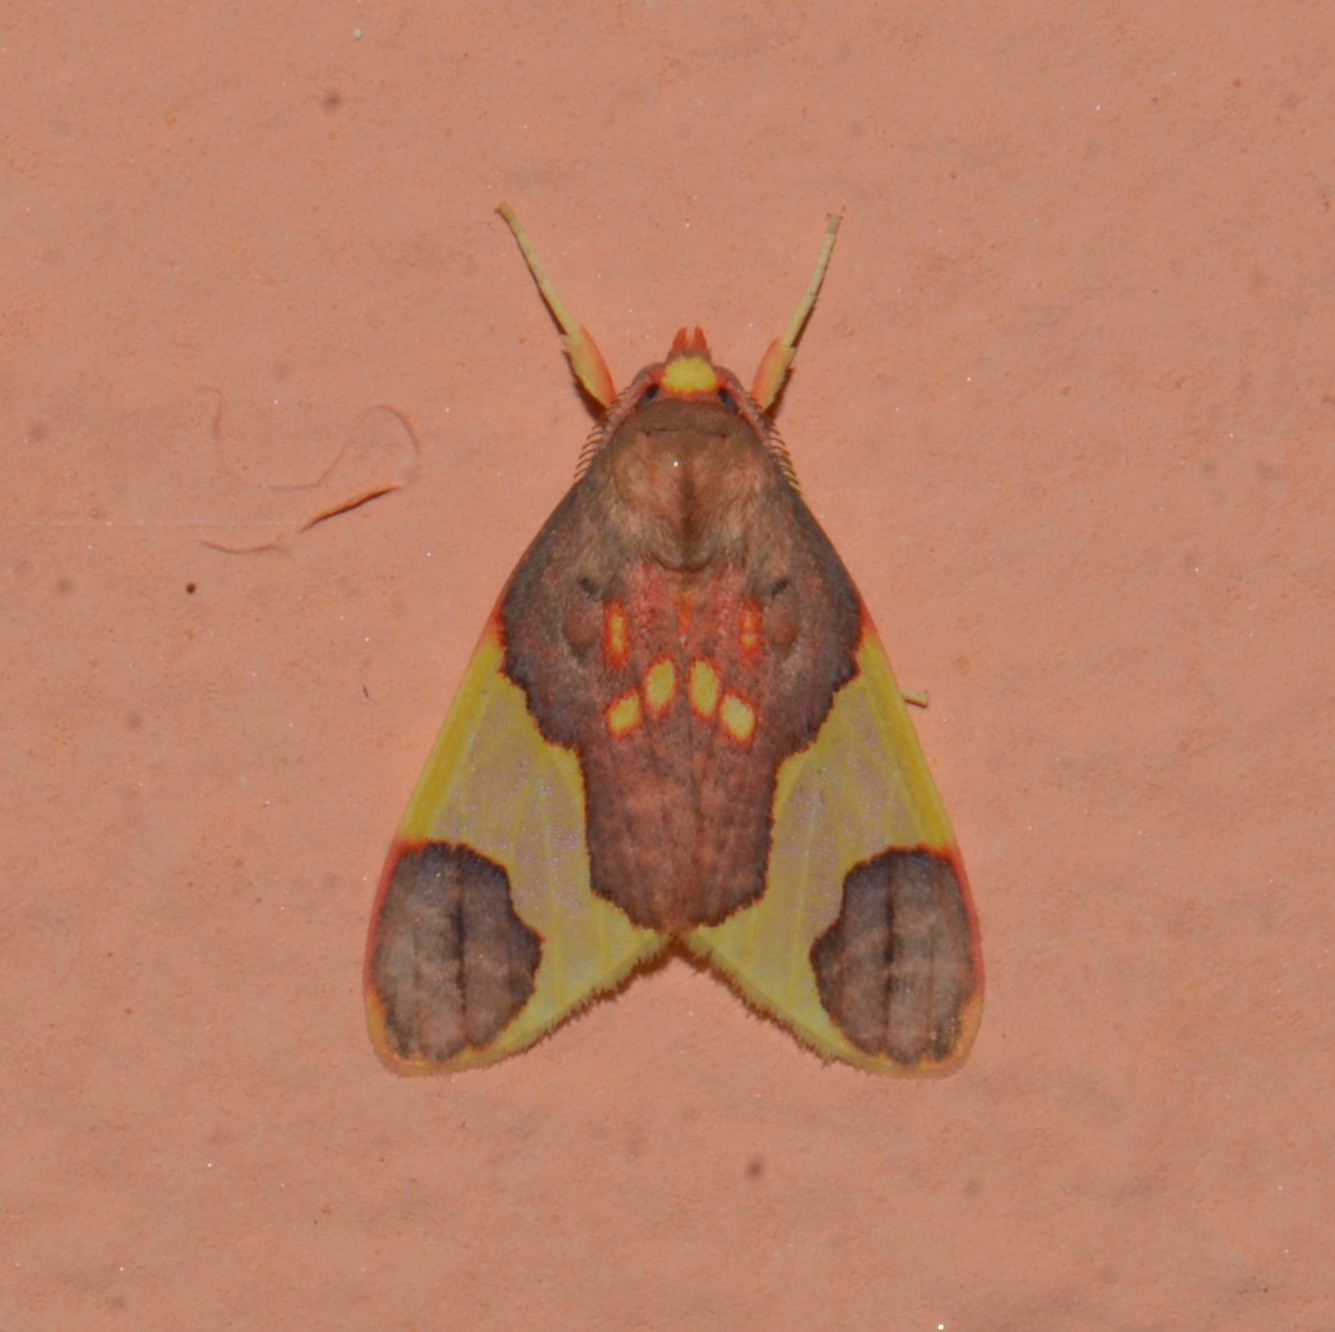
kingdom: Animalia
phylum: Arthropoda
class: Insecta
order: Lepidoptera
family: Erebidae
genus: Trichromia
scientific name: Trichromia
